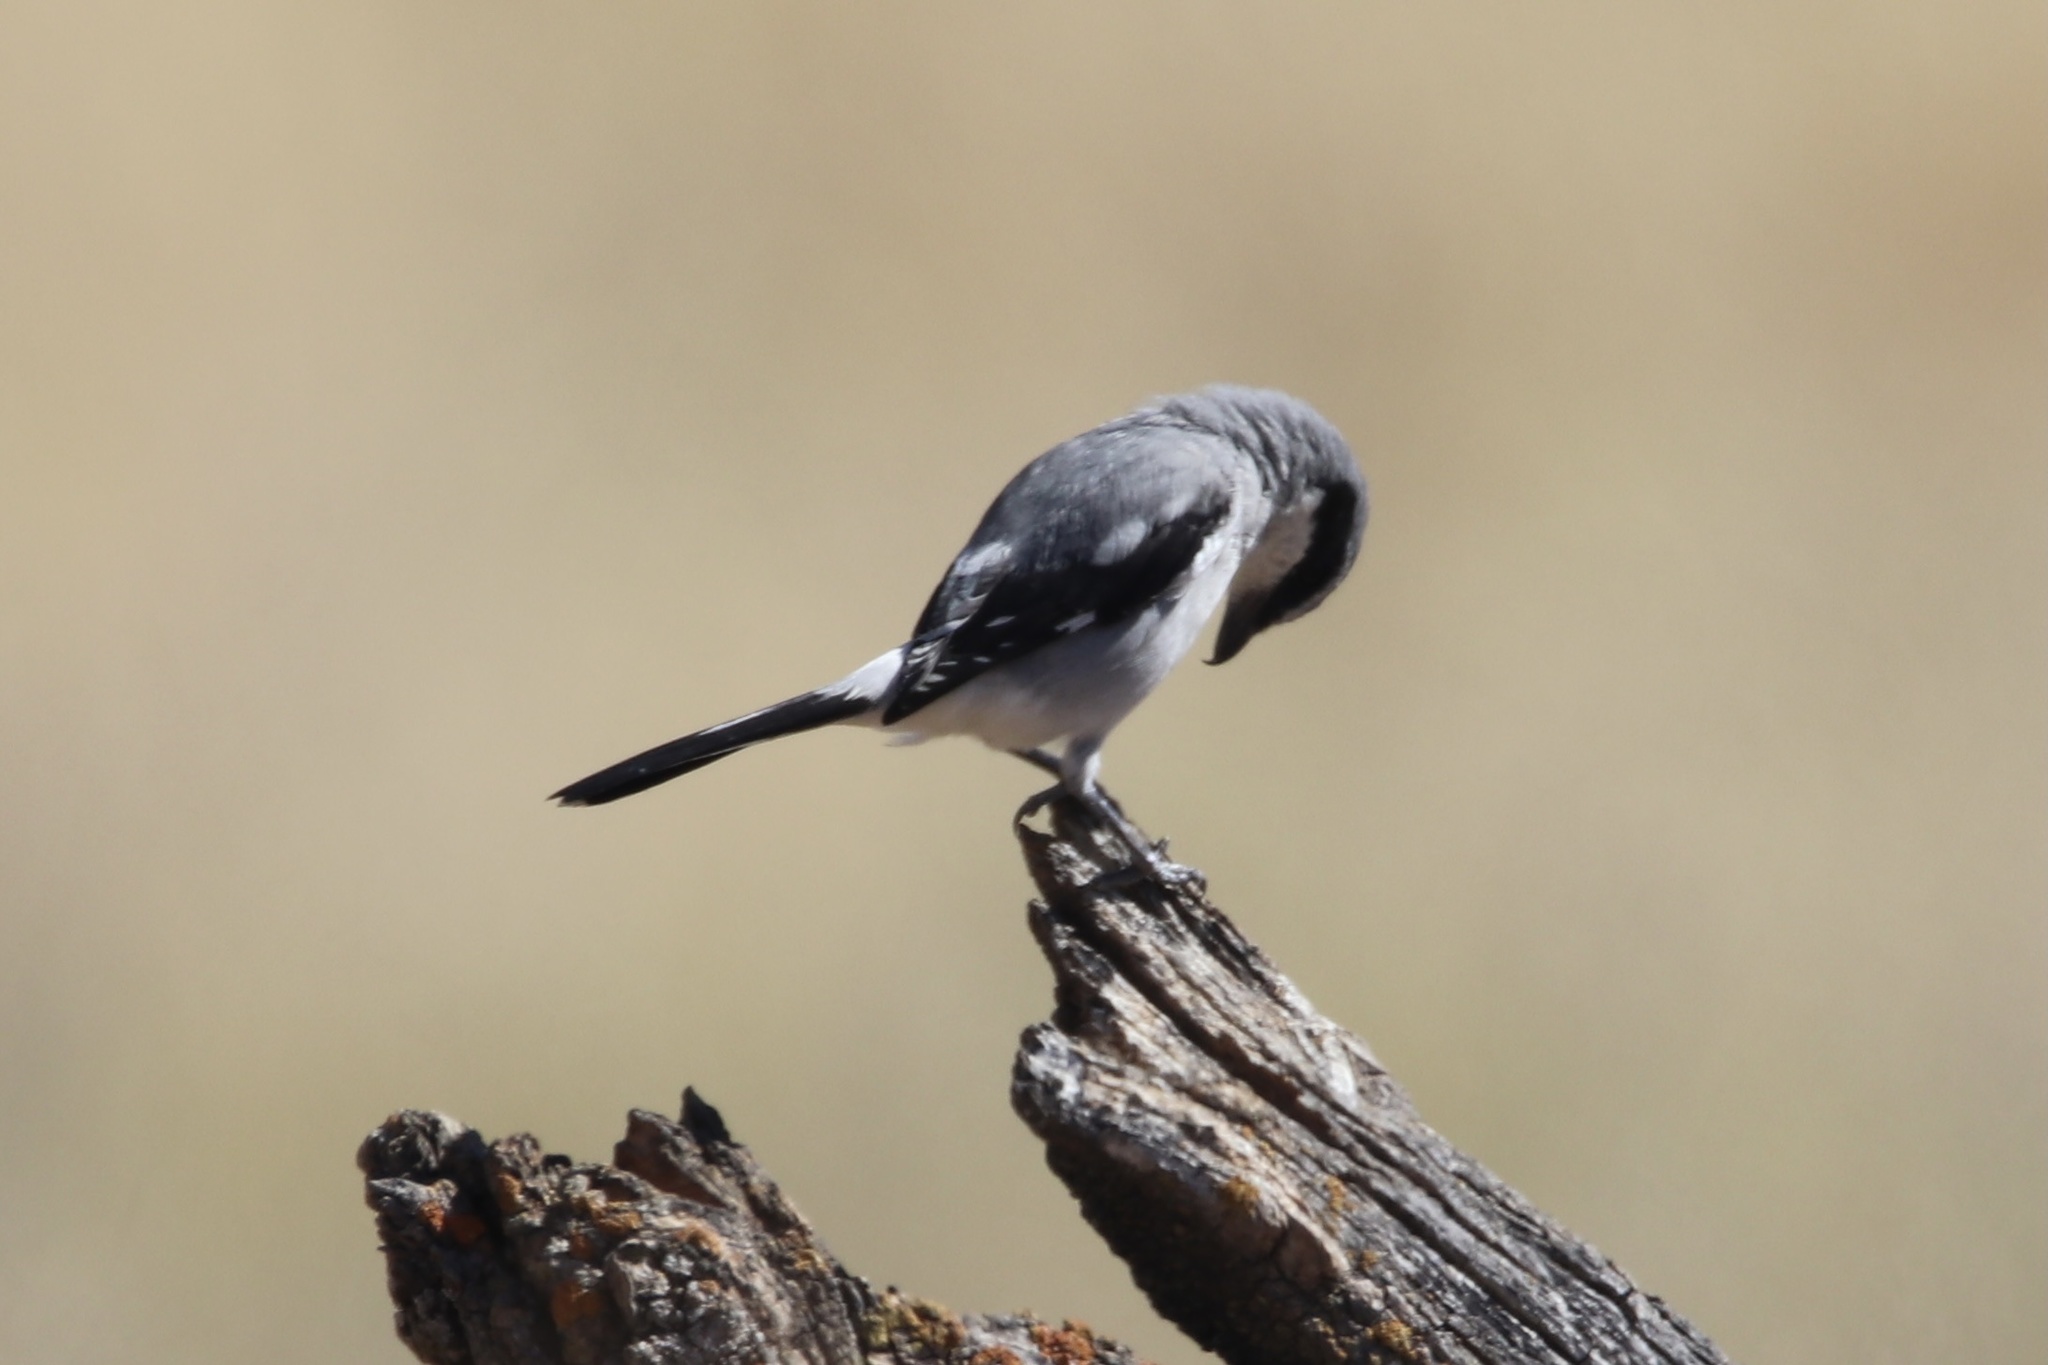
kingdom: Animalia
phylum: Chordata
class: Aves
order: Passeriformes
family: Laniidae
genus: Lanius
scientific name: Lanius ludovicianus
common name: Loggerhead shrike
